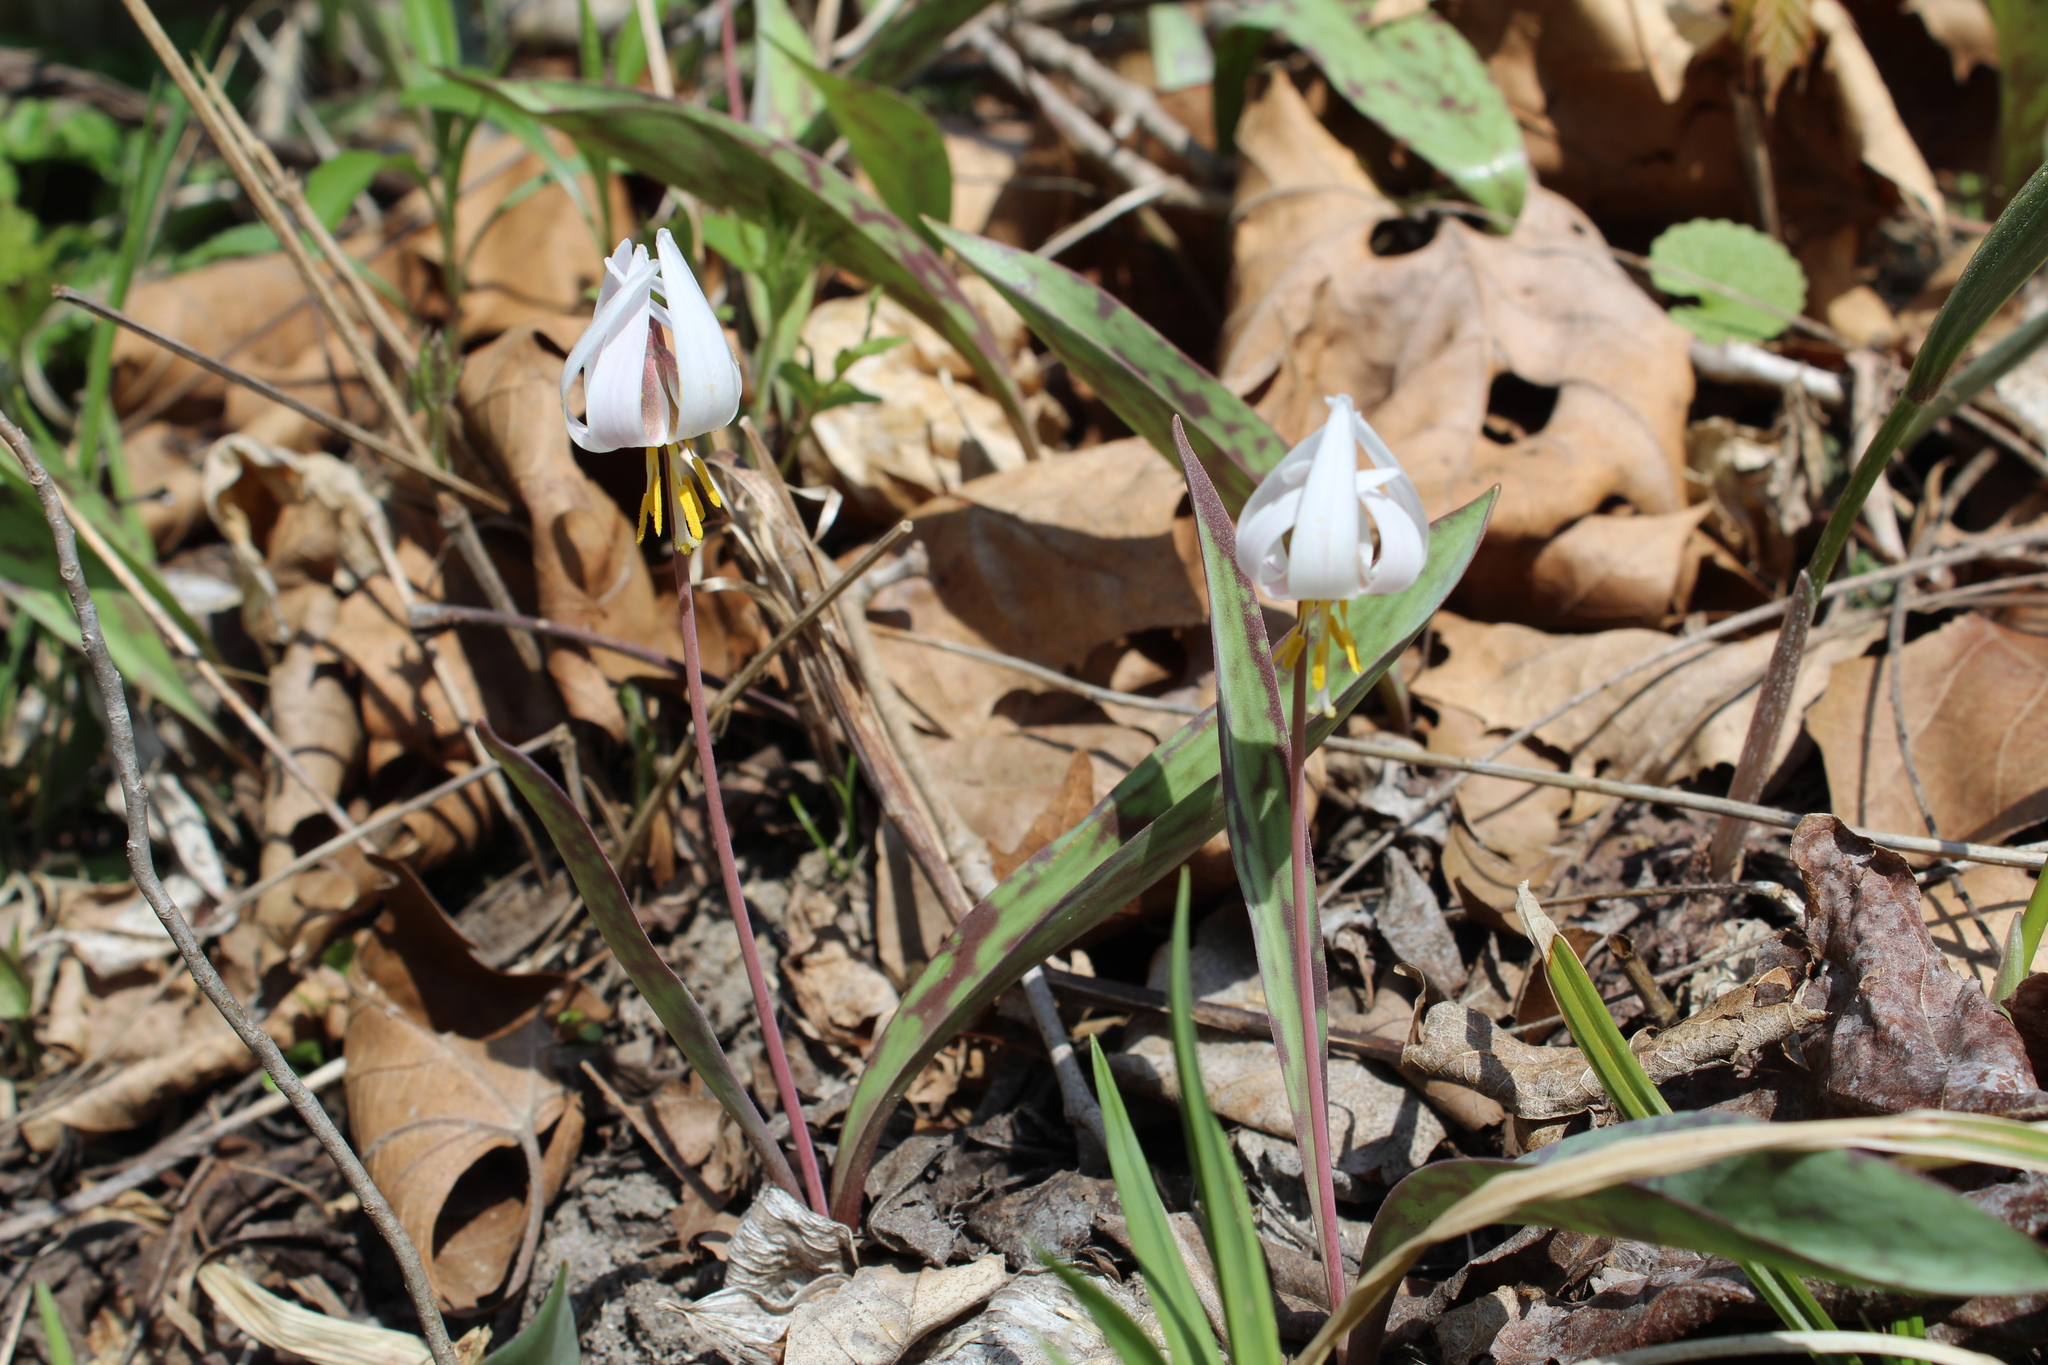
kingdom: Plantae
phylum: Tracheophyta
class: Liliopsida
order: Liliales
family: Liliaceae
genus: Erythronium
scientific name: Erythronium albidum
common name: White trout-lily
